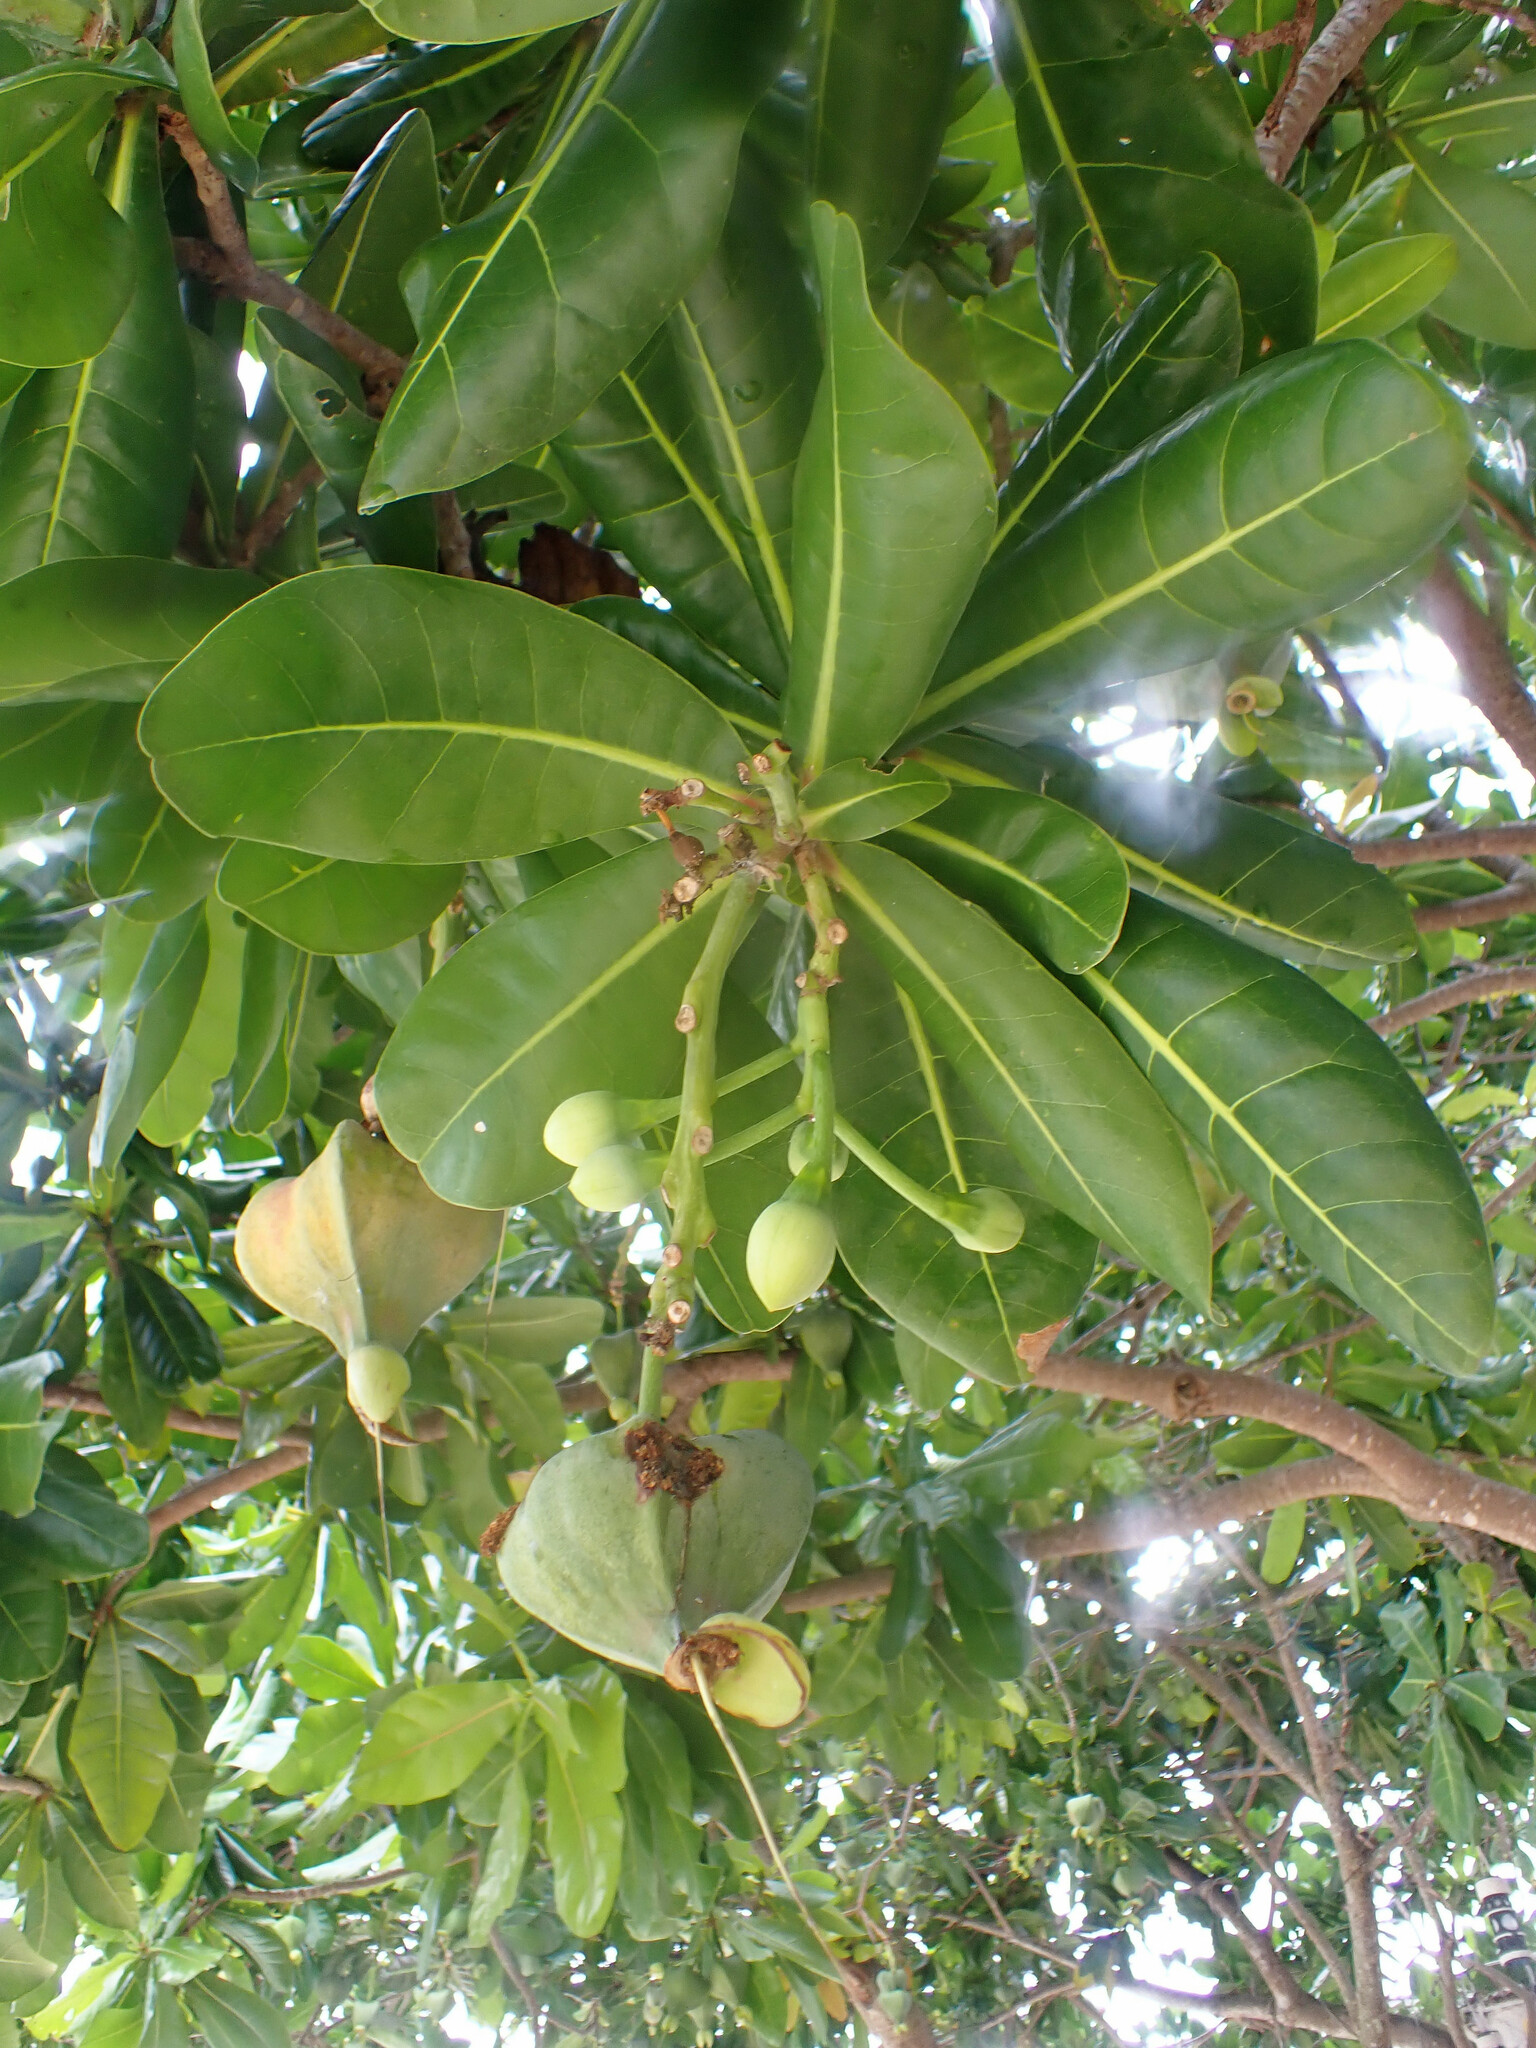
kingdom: Plantae
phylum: Tracheophyta
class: Magnoliopsida
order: Ericales
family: Lecythidaceae
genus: Barringtonia
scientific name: Barringtonia asiatica
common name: Mango-pine
